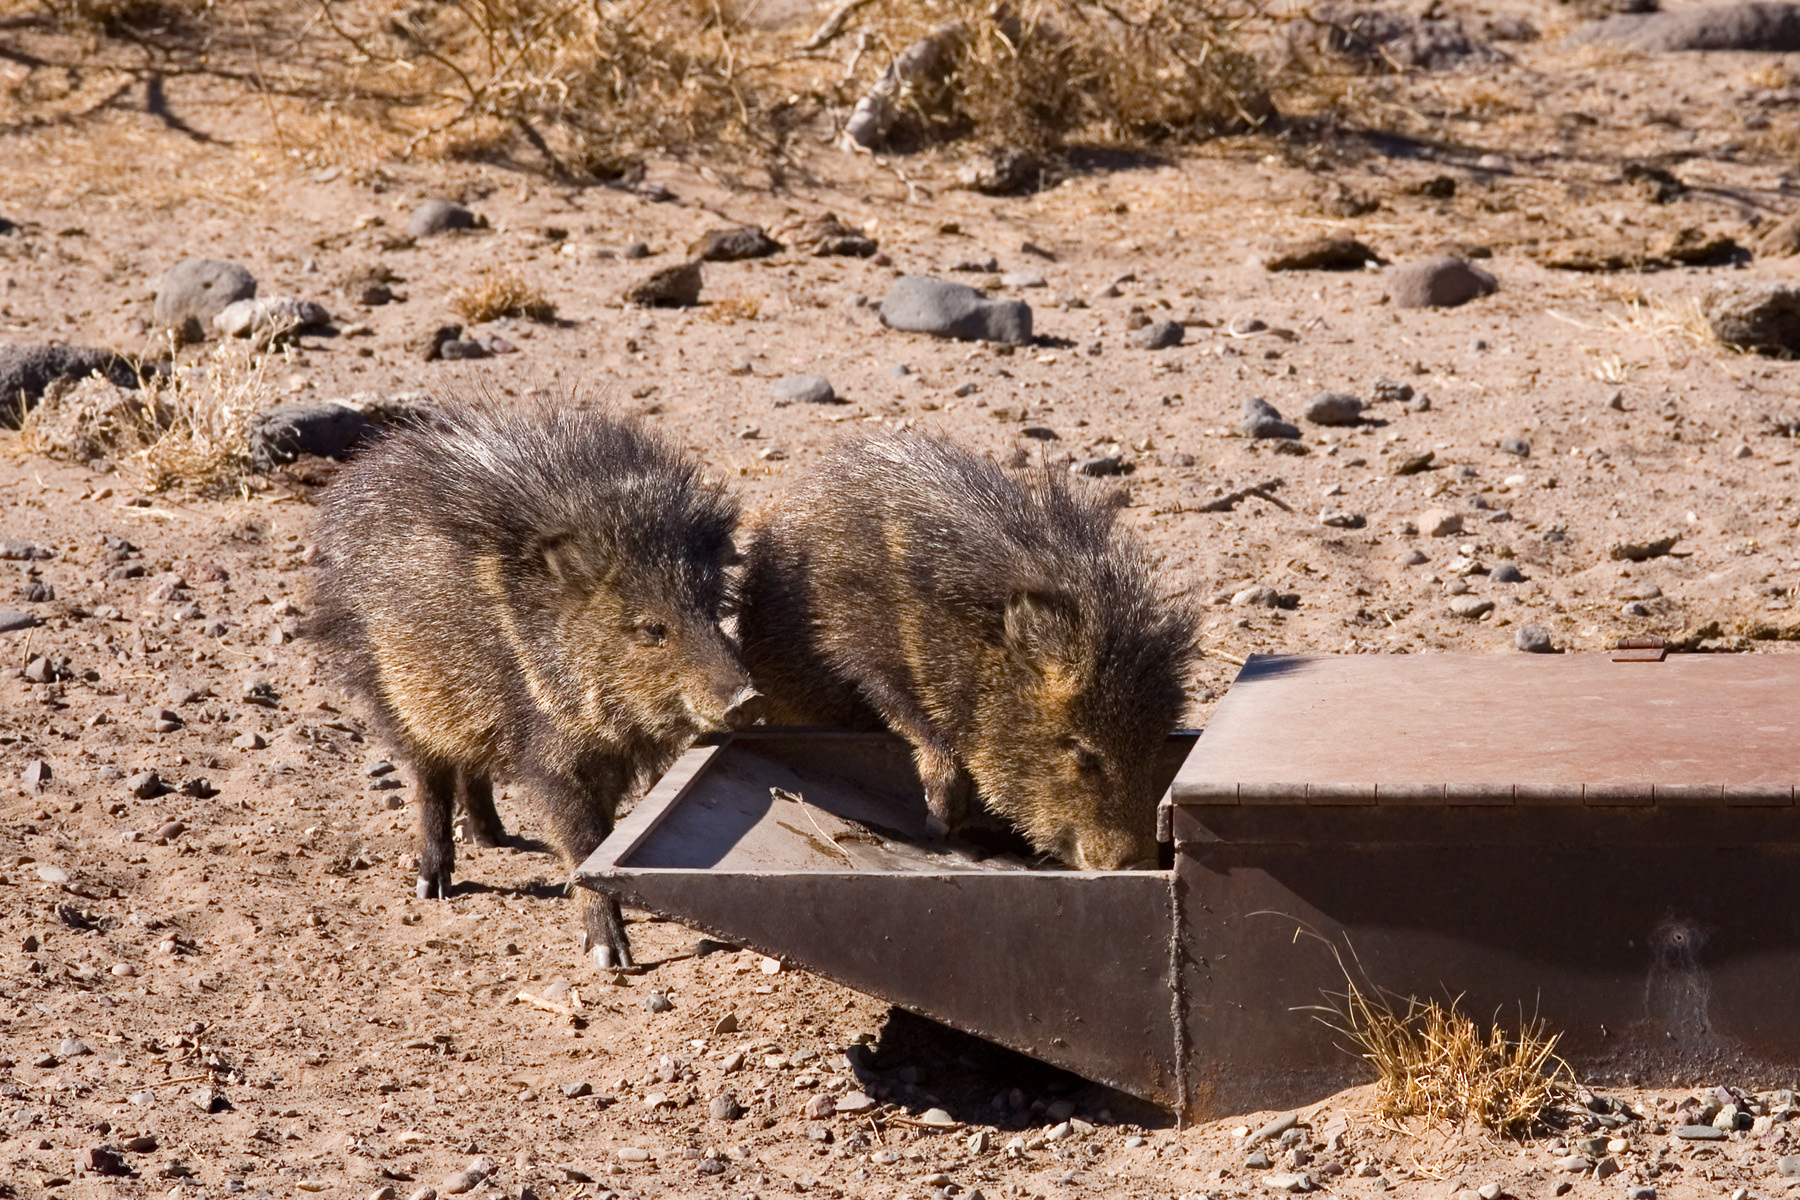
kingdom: Animalia
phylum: Chordata
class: Mammalia
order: Artiodactyla
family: Tayassuidae
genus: Pecari
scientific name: Pecari tajacu
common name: Collared peccary
